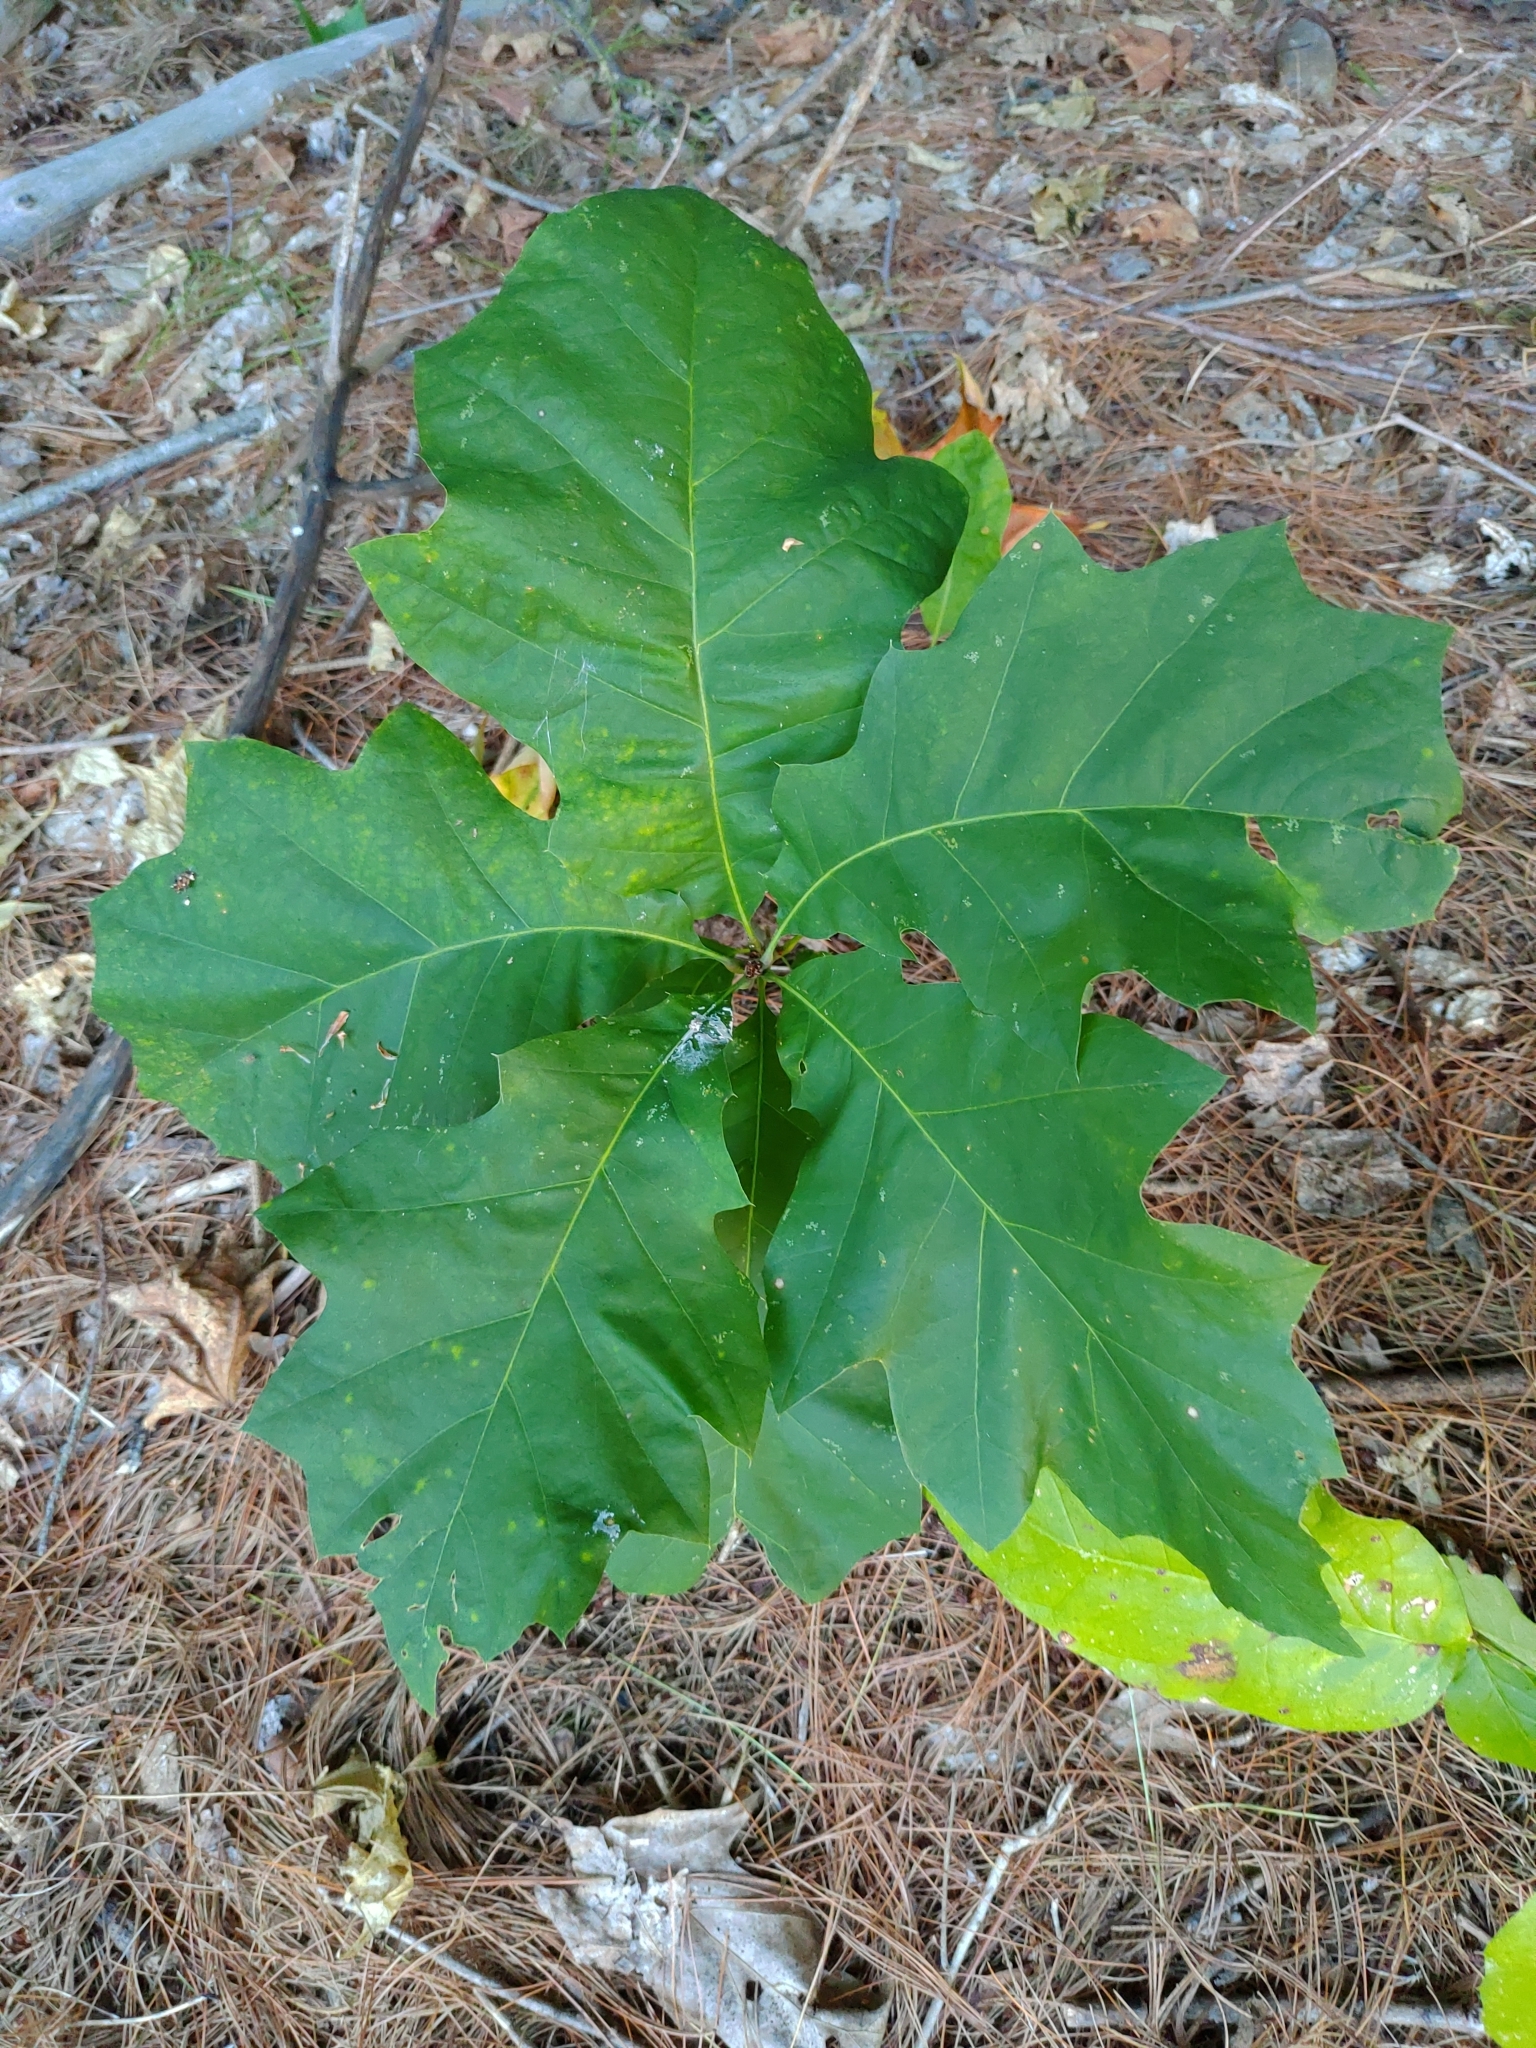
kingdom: Plantae
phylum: Tracheophyta
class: Magnoliopsida
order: Fagales
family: Fagaceae
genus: Quercus
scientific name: Quercus rubra
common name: Red oak
